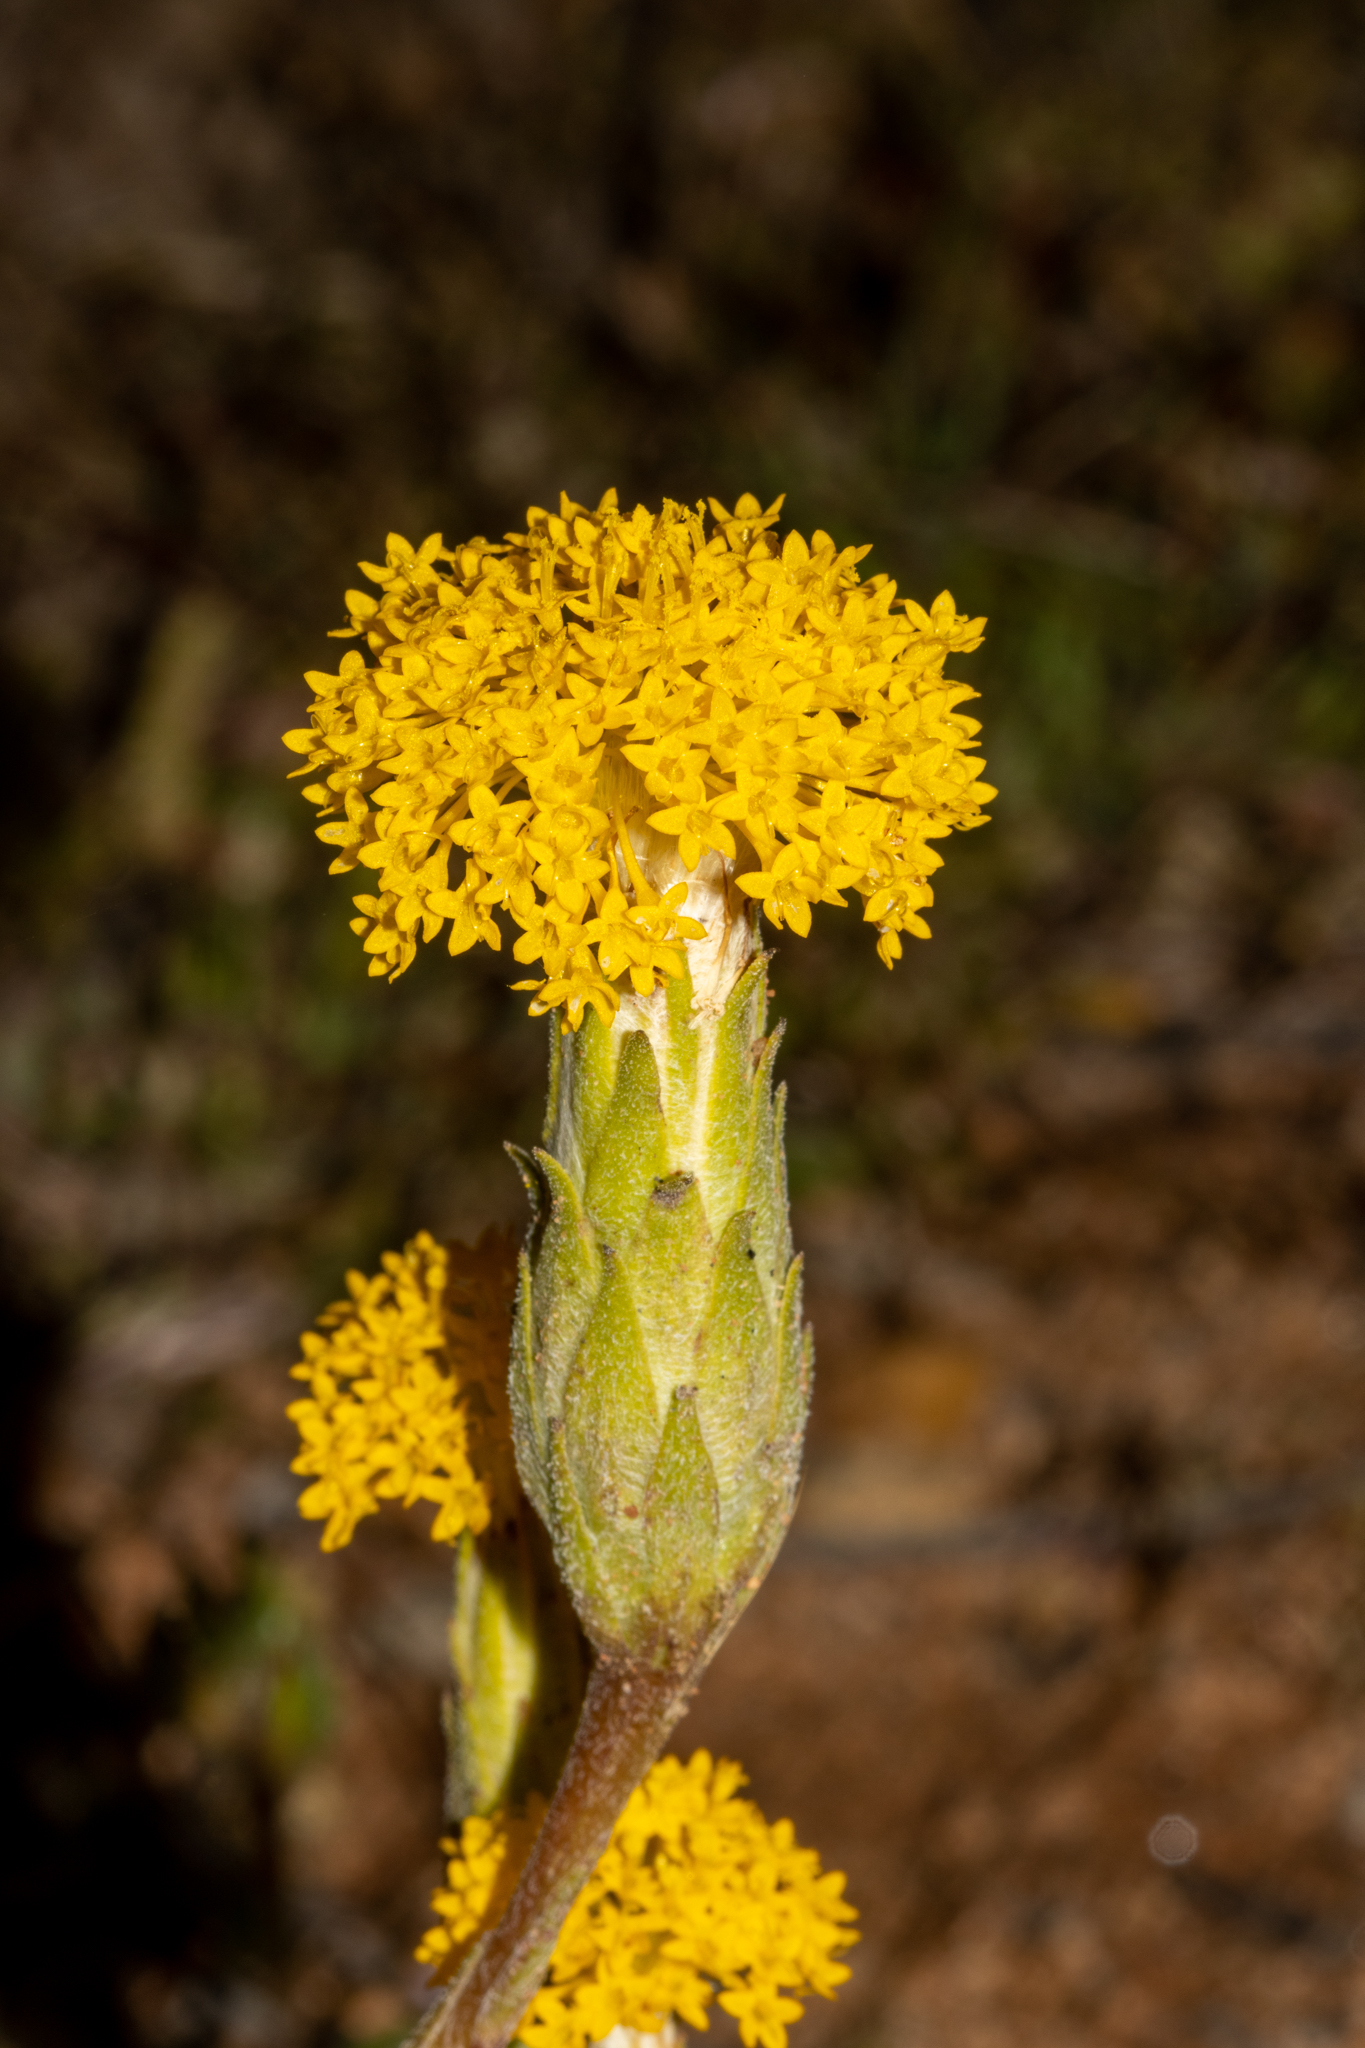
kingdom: Plantae
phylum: Tracheophyta
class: Magnoliopsida
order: Asterales
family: Asteraceae
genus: Podotheca
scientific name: Podotheca gnaphalioides
